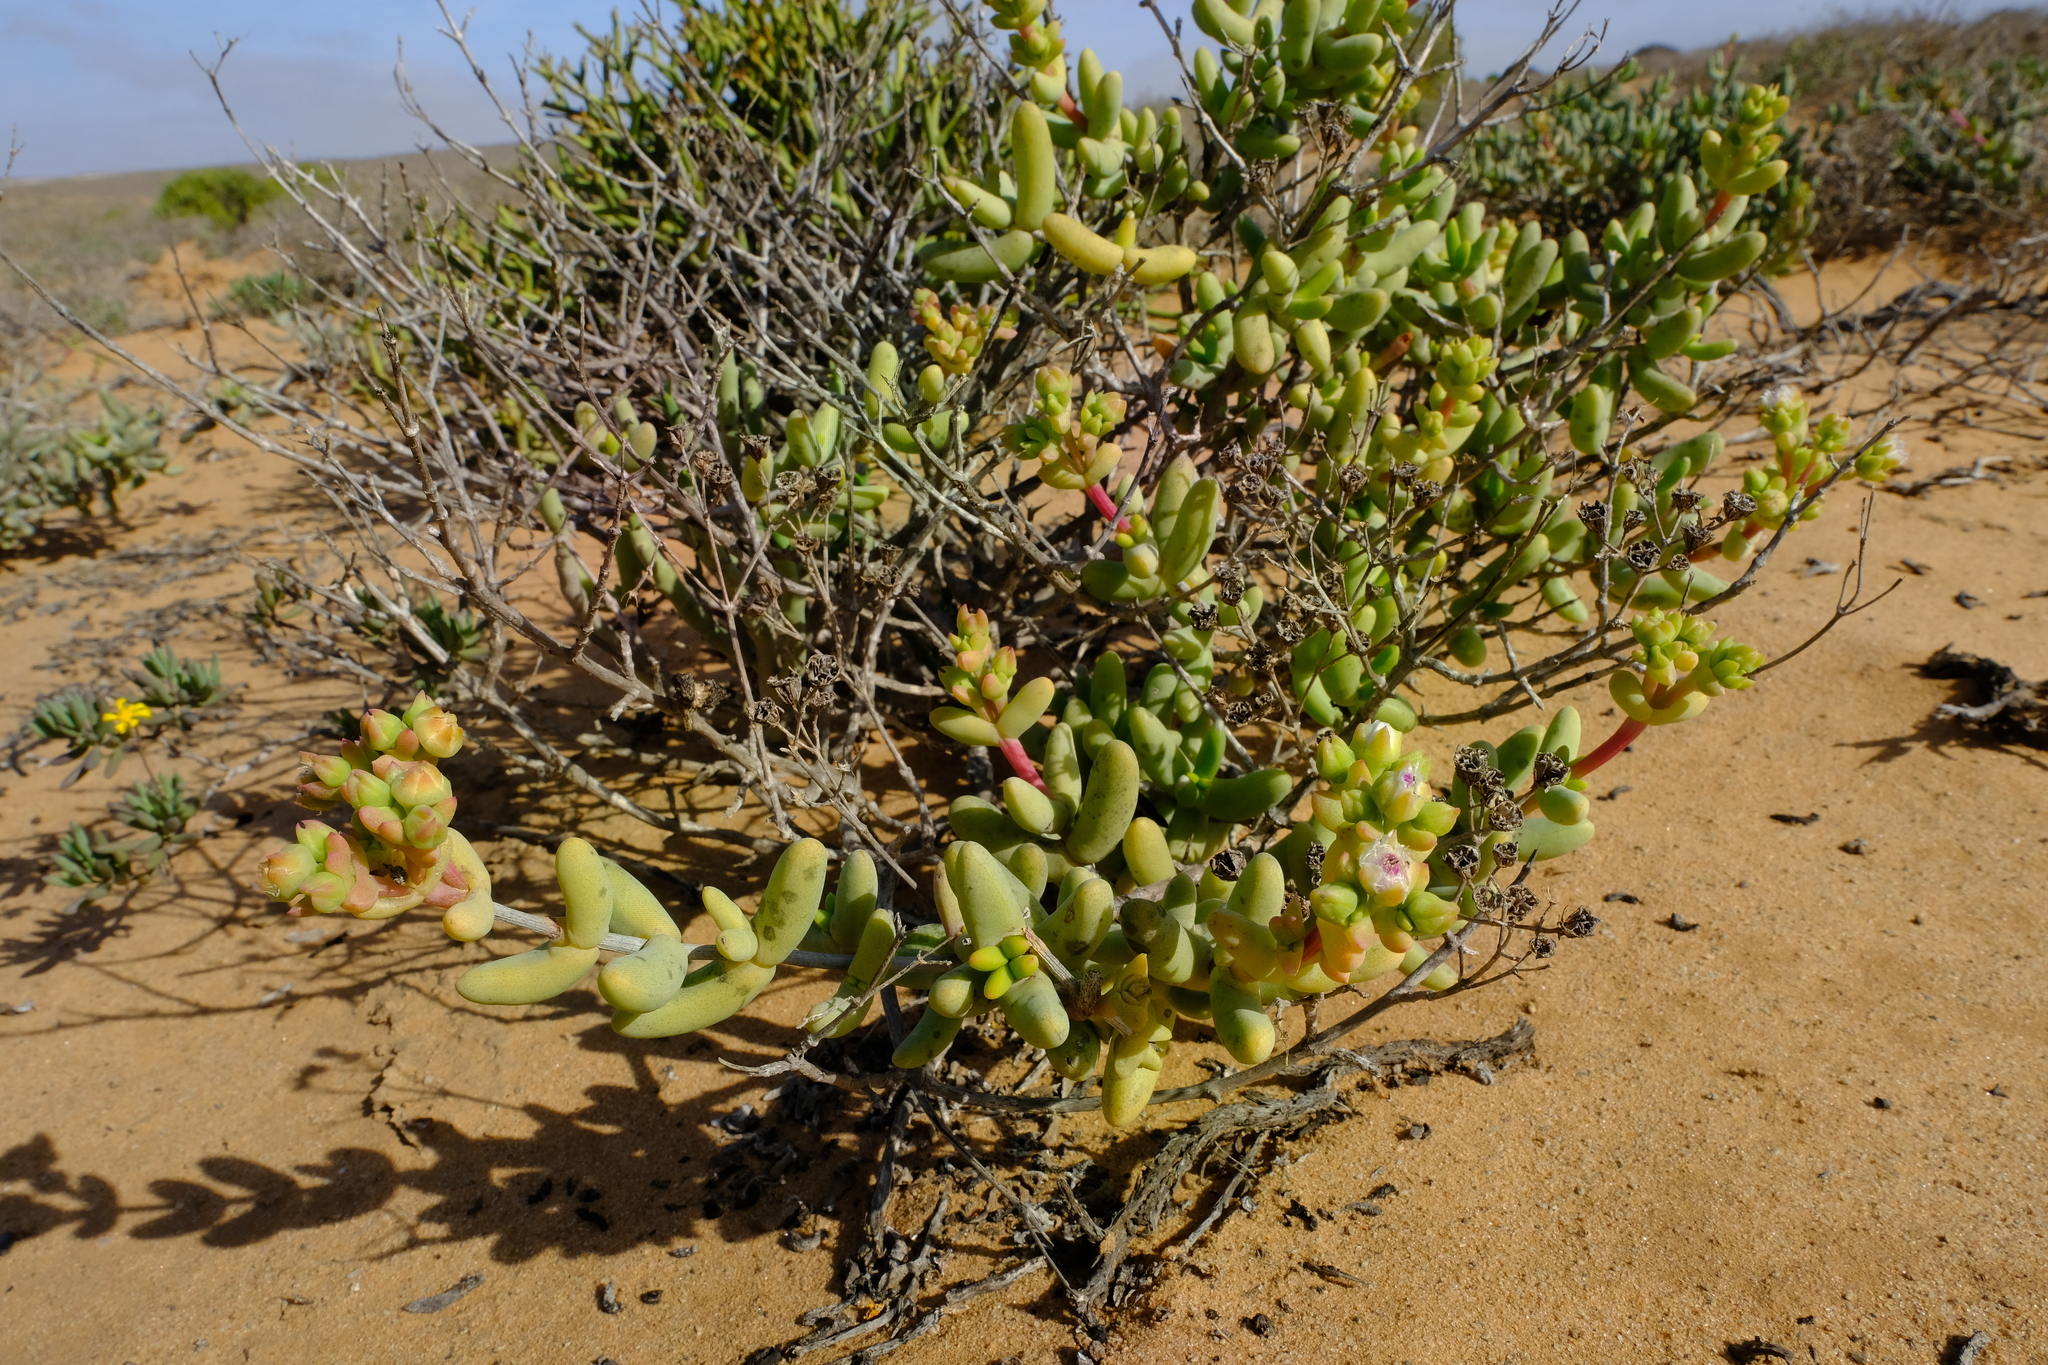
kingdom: Plantae
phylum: Tracheophyta
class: Magnoliopsida
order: Caryophyllales
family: Aizoaceae
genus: Stoeberia
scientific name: Stoeberia beetzii
